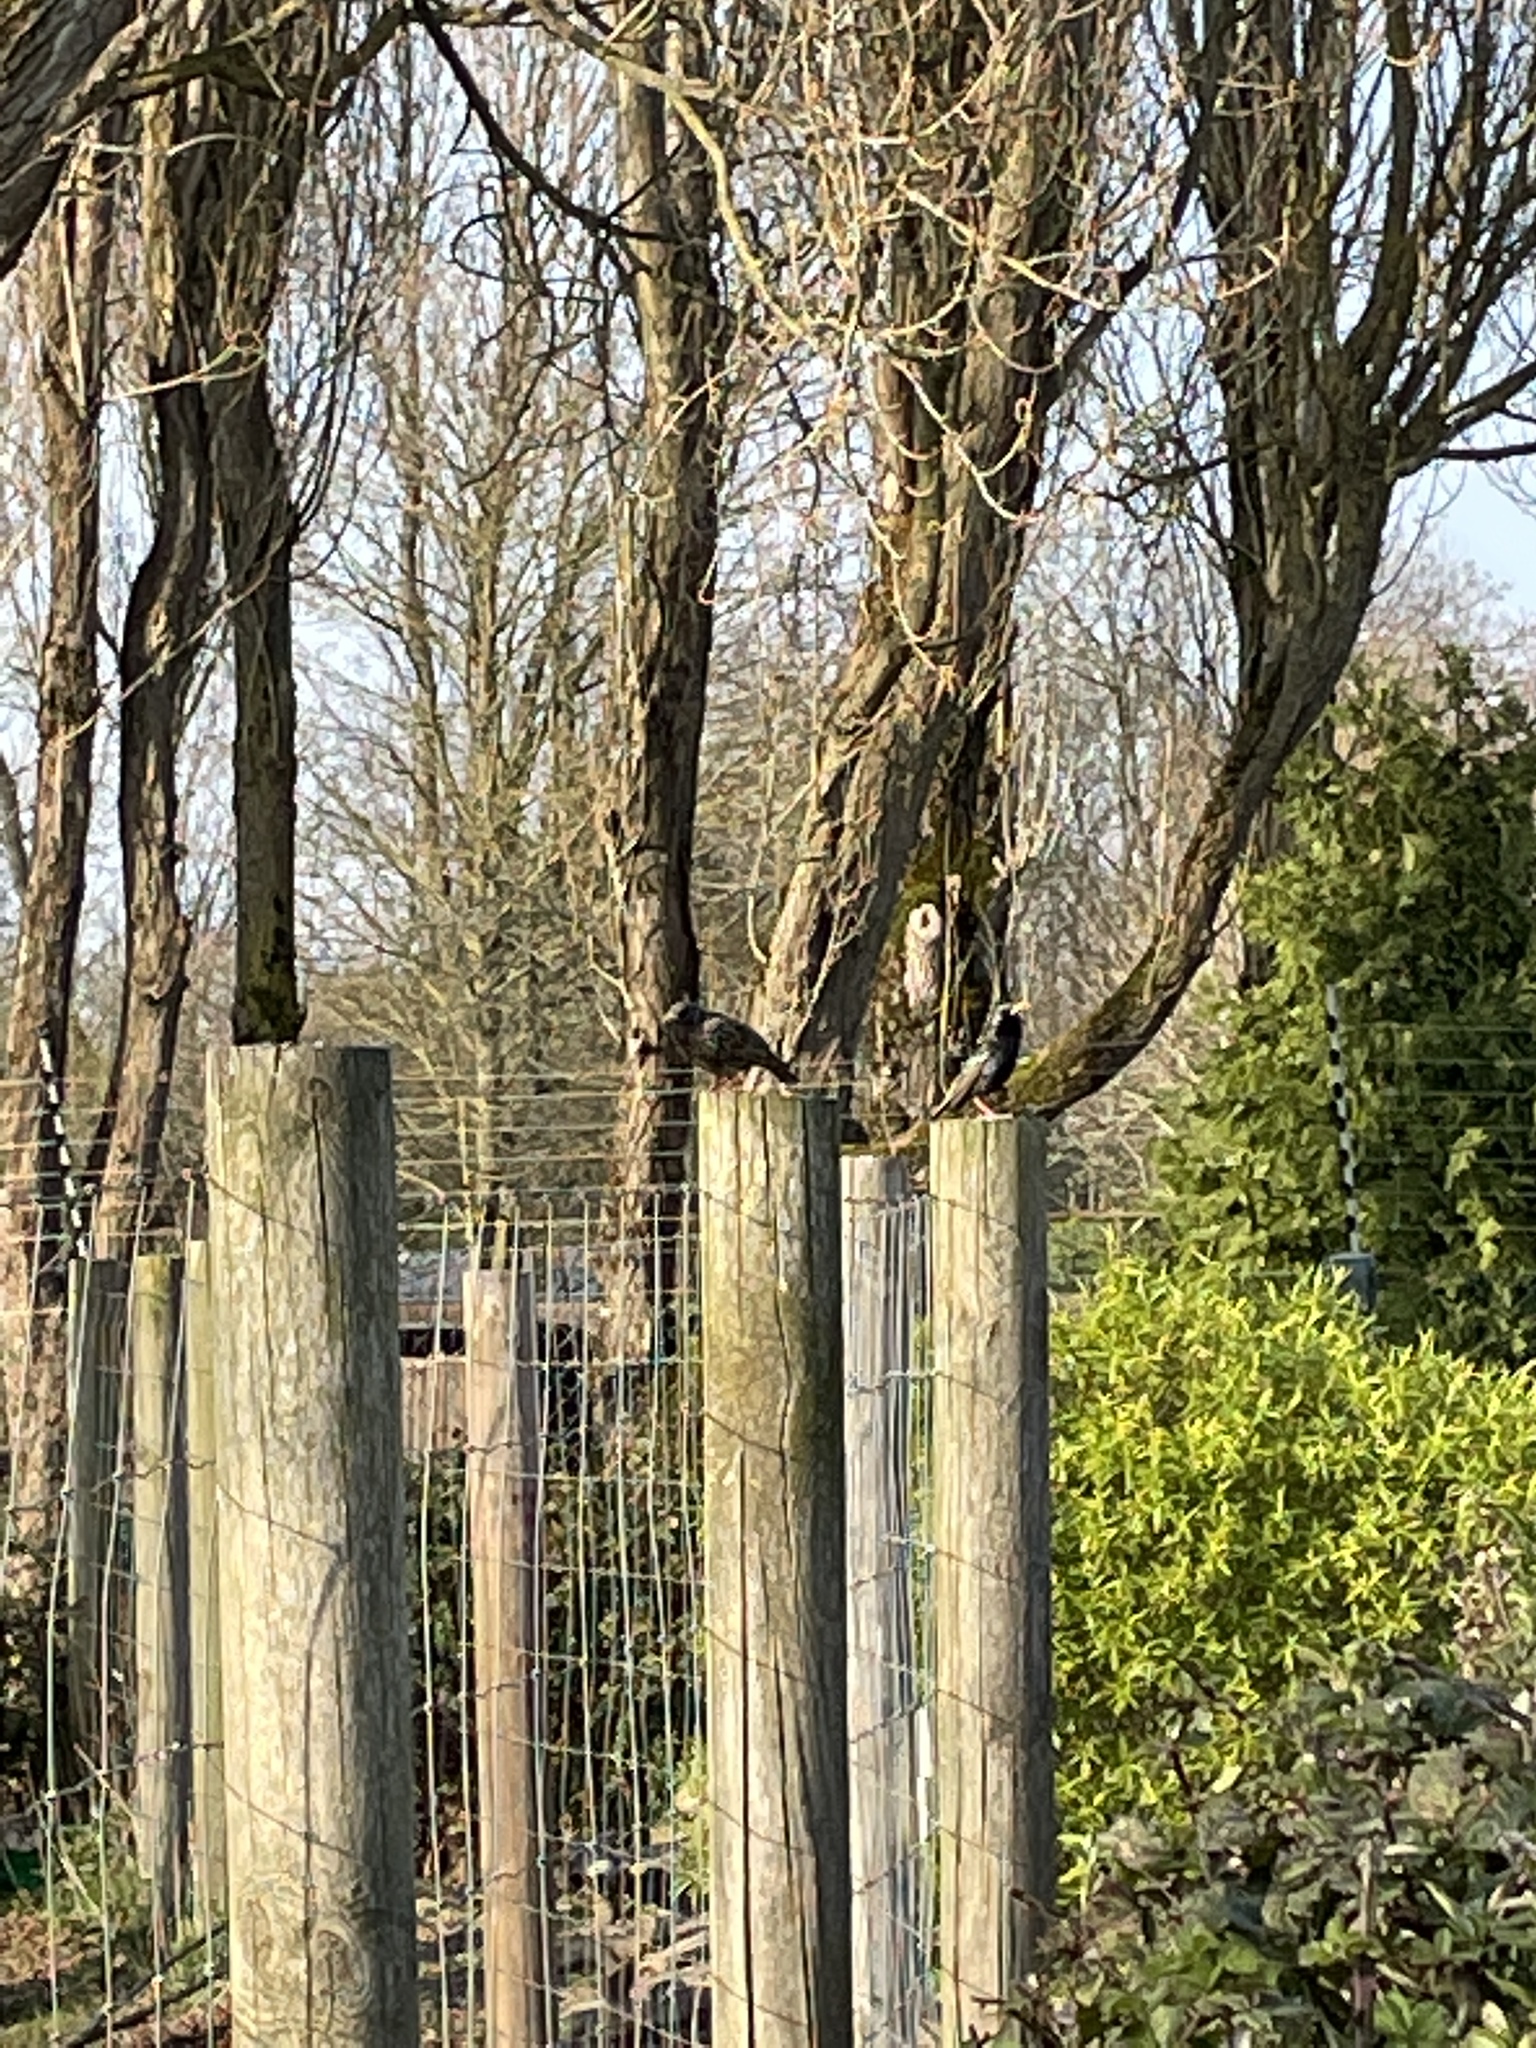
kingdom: Animalia
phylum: Chordata
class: Aves
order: Passeriformes
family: Sturnidae
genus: Sturnus
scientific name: Sturnus vulgaris
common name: Common starling
